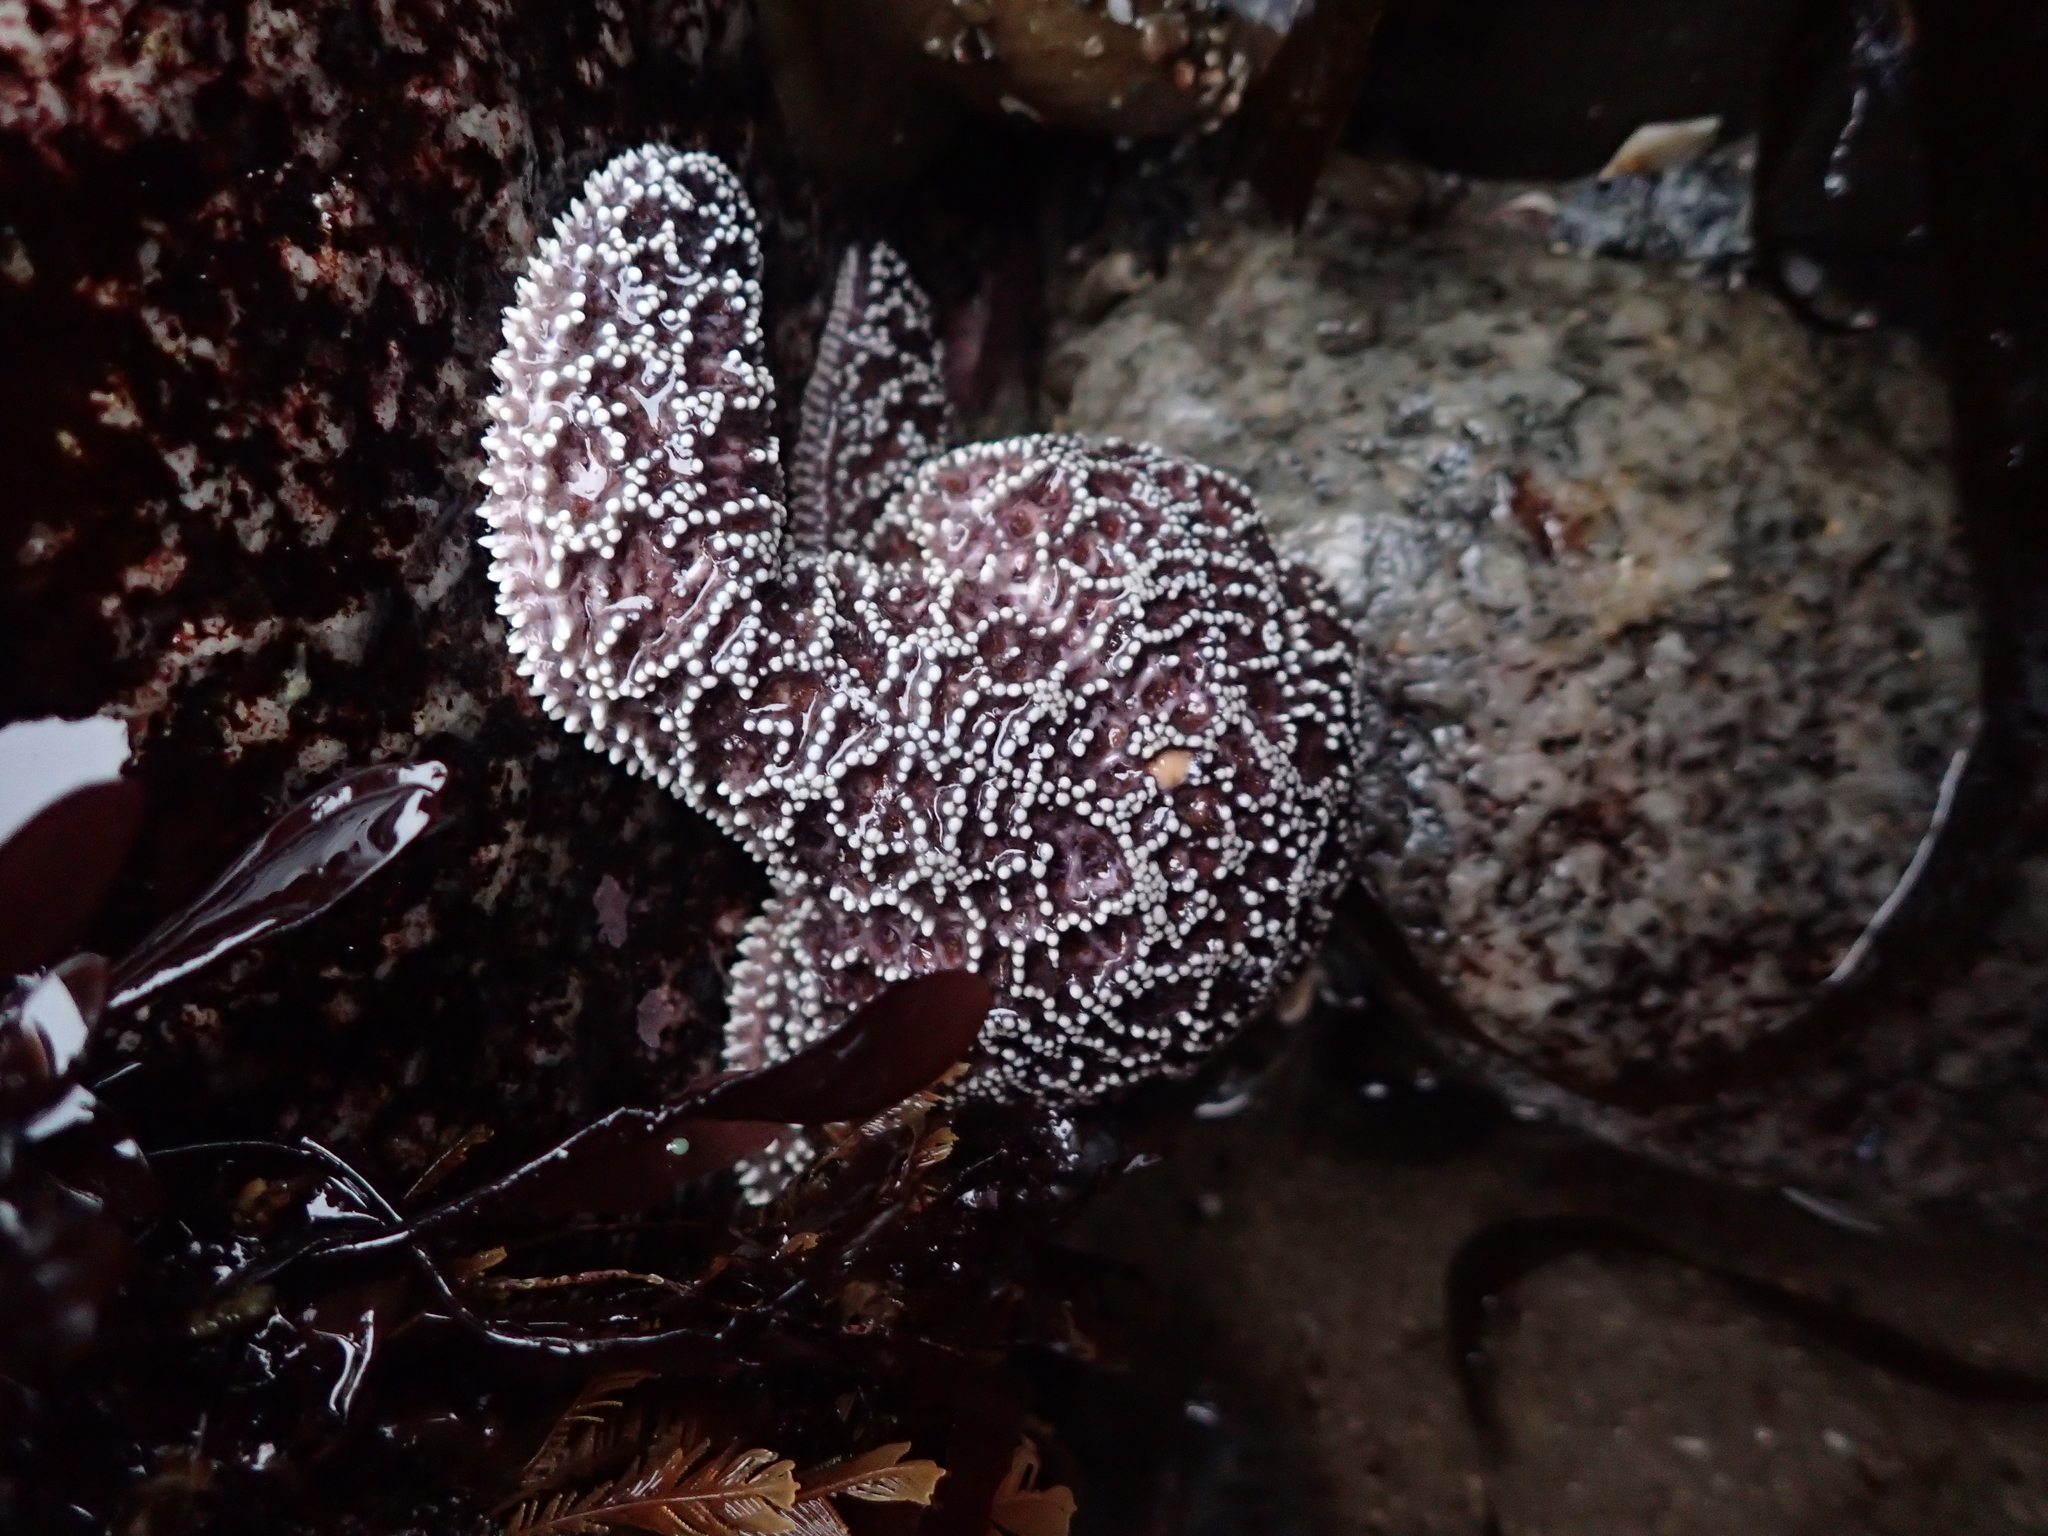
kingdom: Animalia
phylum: Echinodermata
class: Asteroidea
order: Forcipulatida
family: Asteriidae
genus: Pisaster
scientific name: Pisaster ochraceus
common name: Ochre stars
